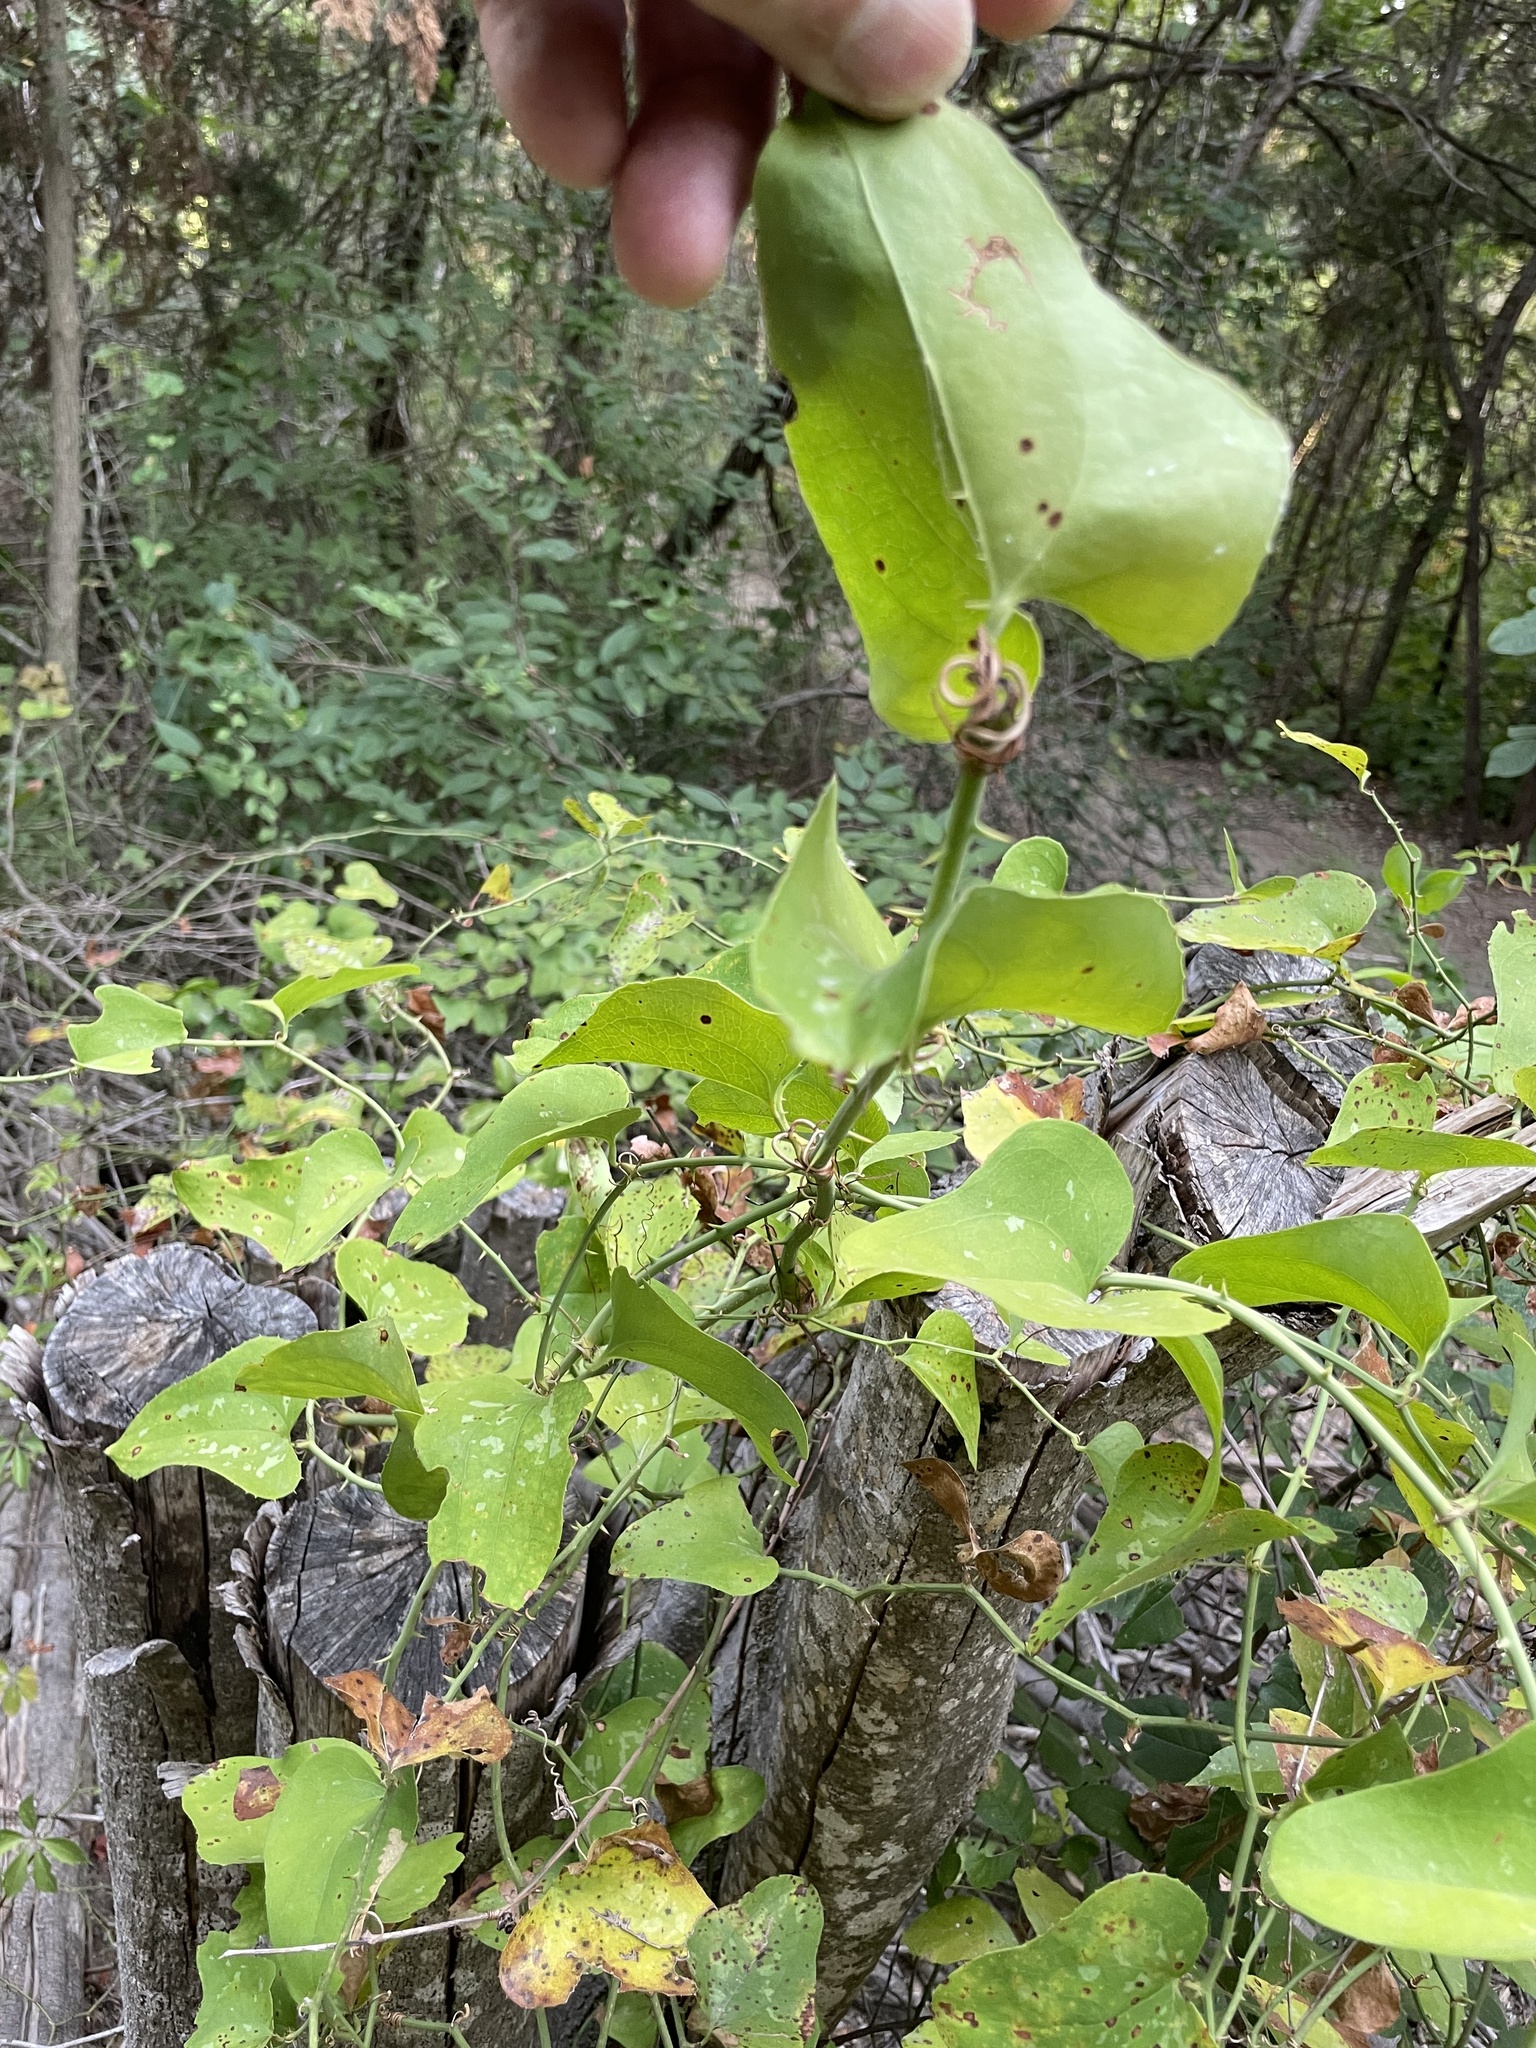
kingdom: Plantae
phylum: Tracheophyta
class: Liliopsida
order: Liliales
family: Smilacaceae
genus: Smilax
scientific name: Smilax bona-nox
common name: Catbrier
